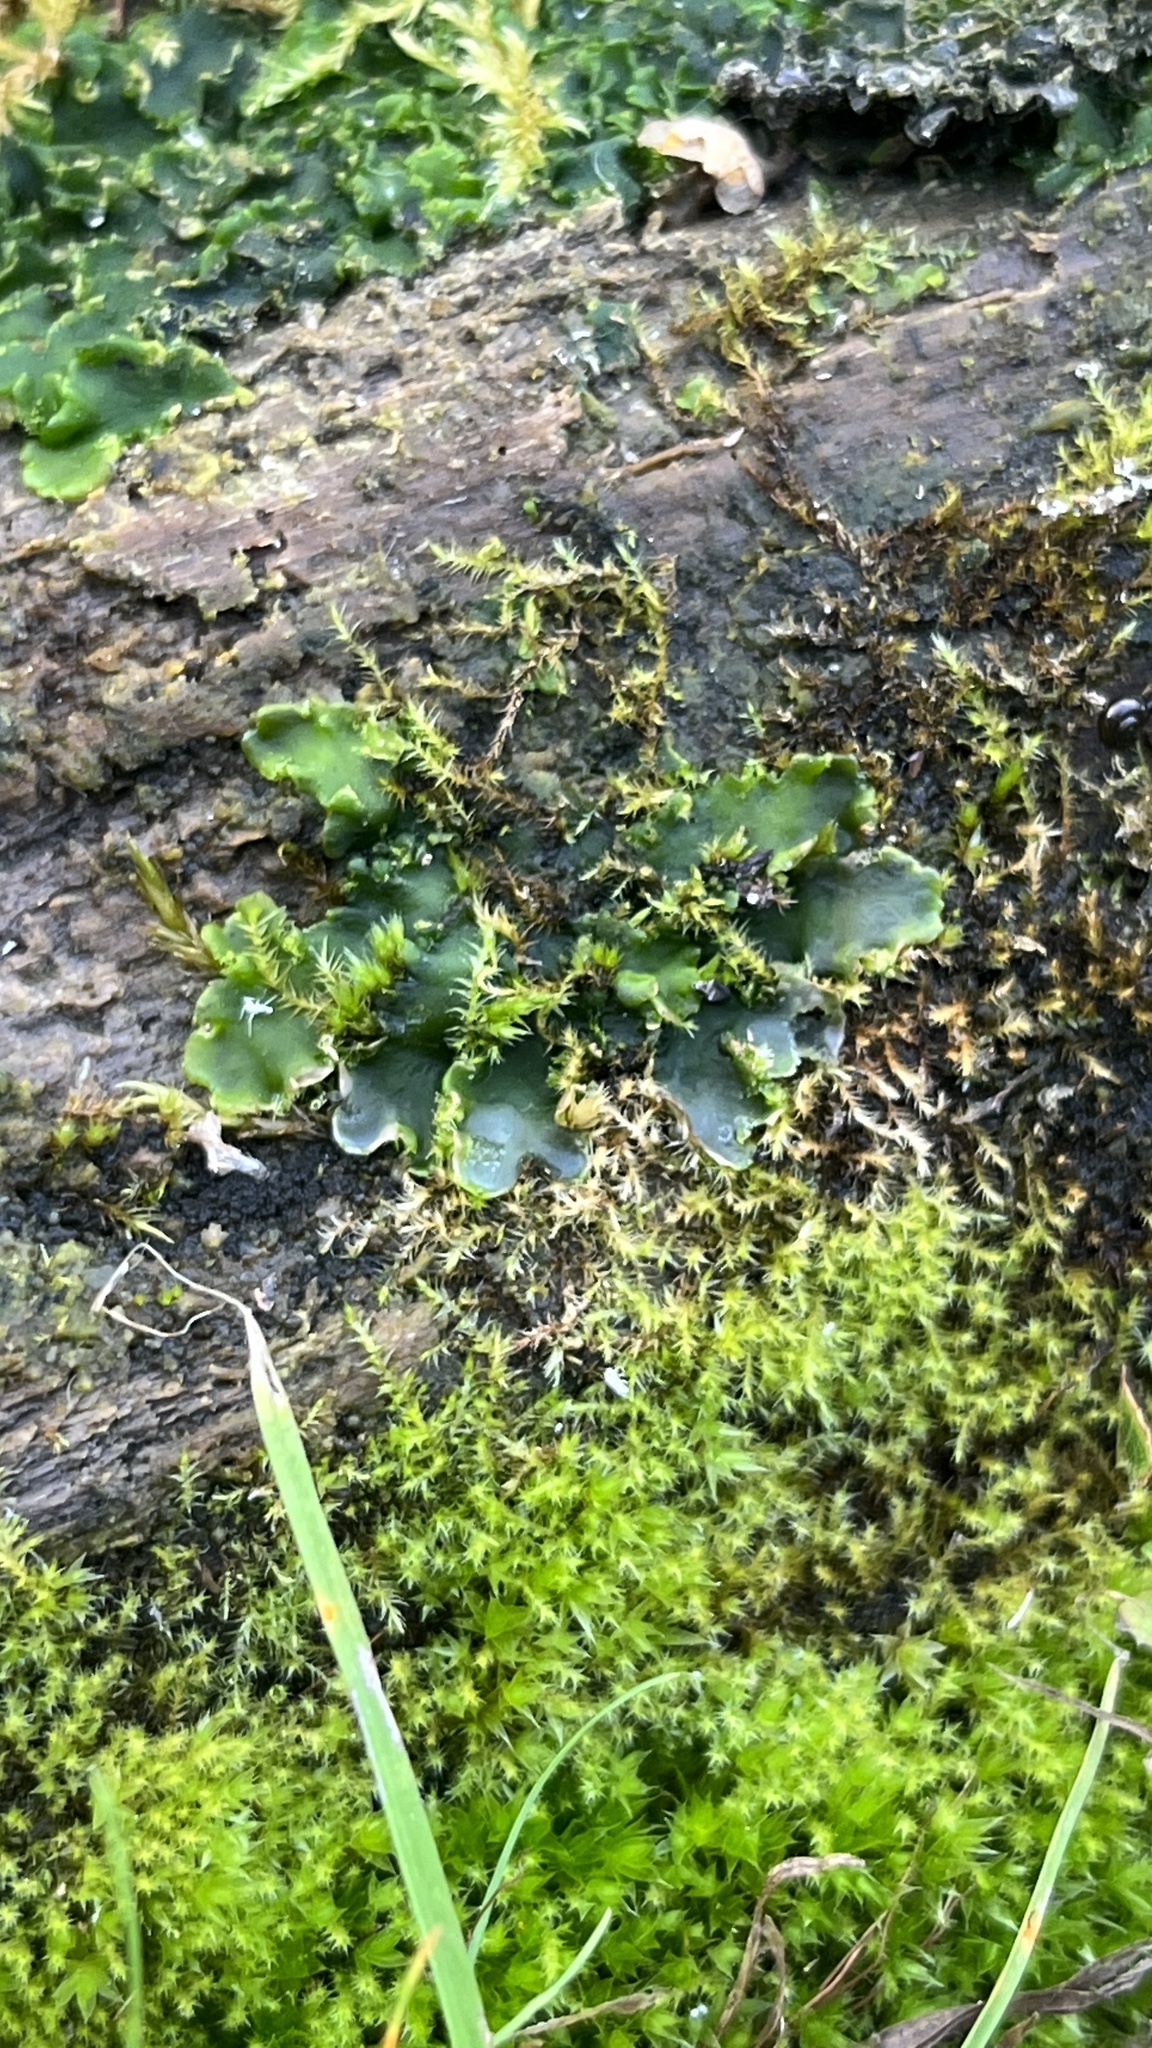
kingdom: Plantae
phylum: Marchantiophyta
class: Jungermanniopsida
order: Metzgeriales
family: Aneuraceae
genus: Aneura
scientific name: Aneura pinguis
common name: Common greasewort
